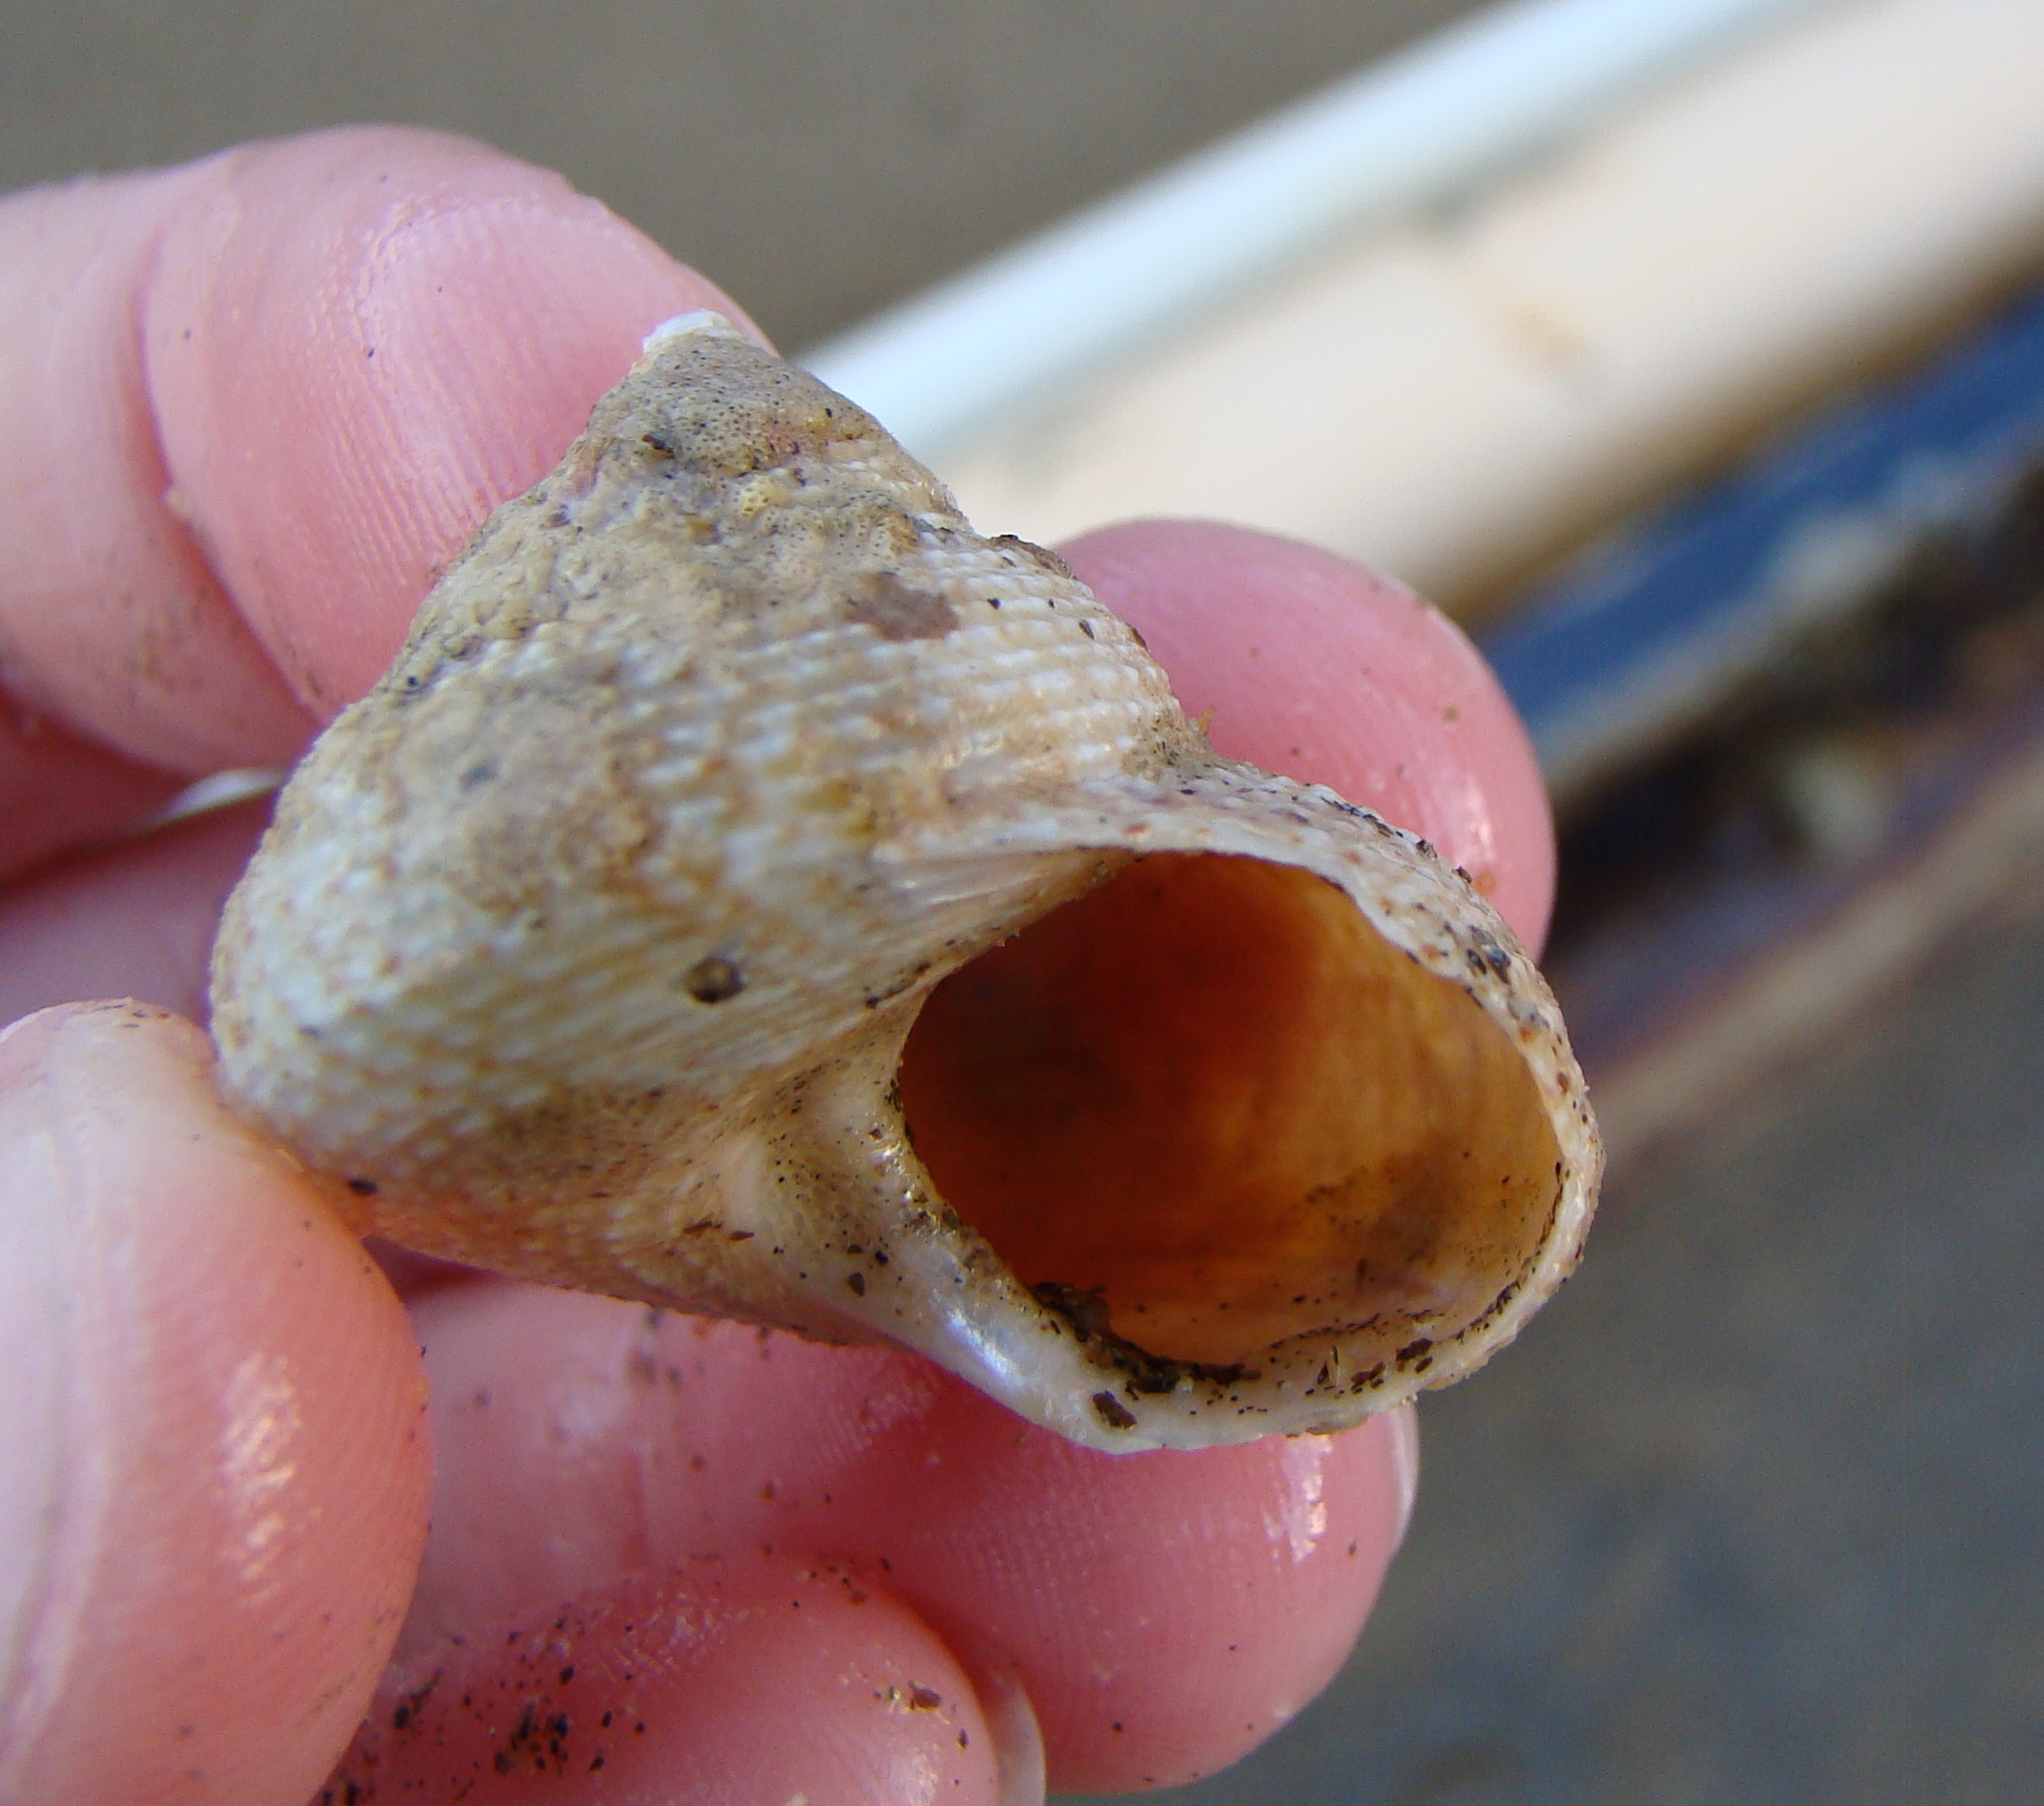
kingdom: Animalia
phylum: Mollusca
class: Gastropoda
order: Trochida
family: Calliostomatidae
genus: Maurea
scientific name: Maurea
